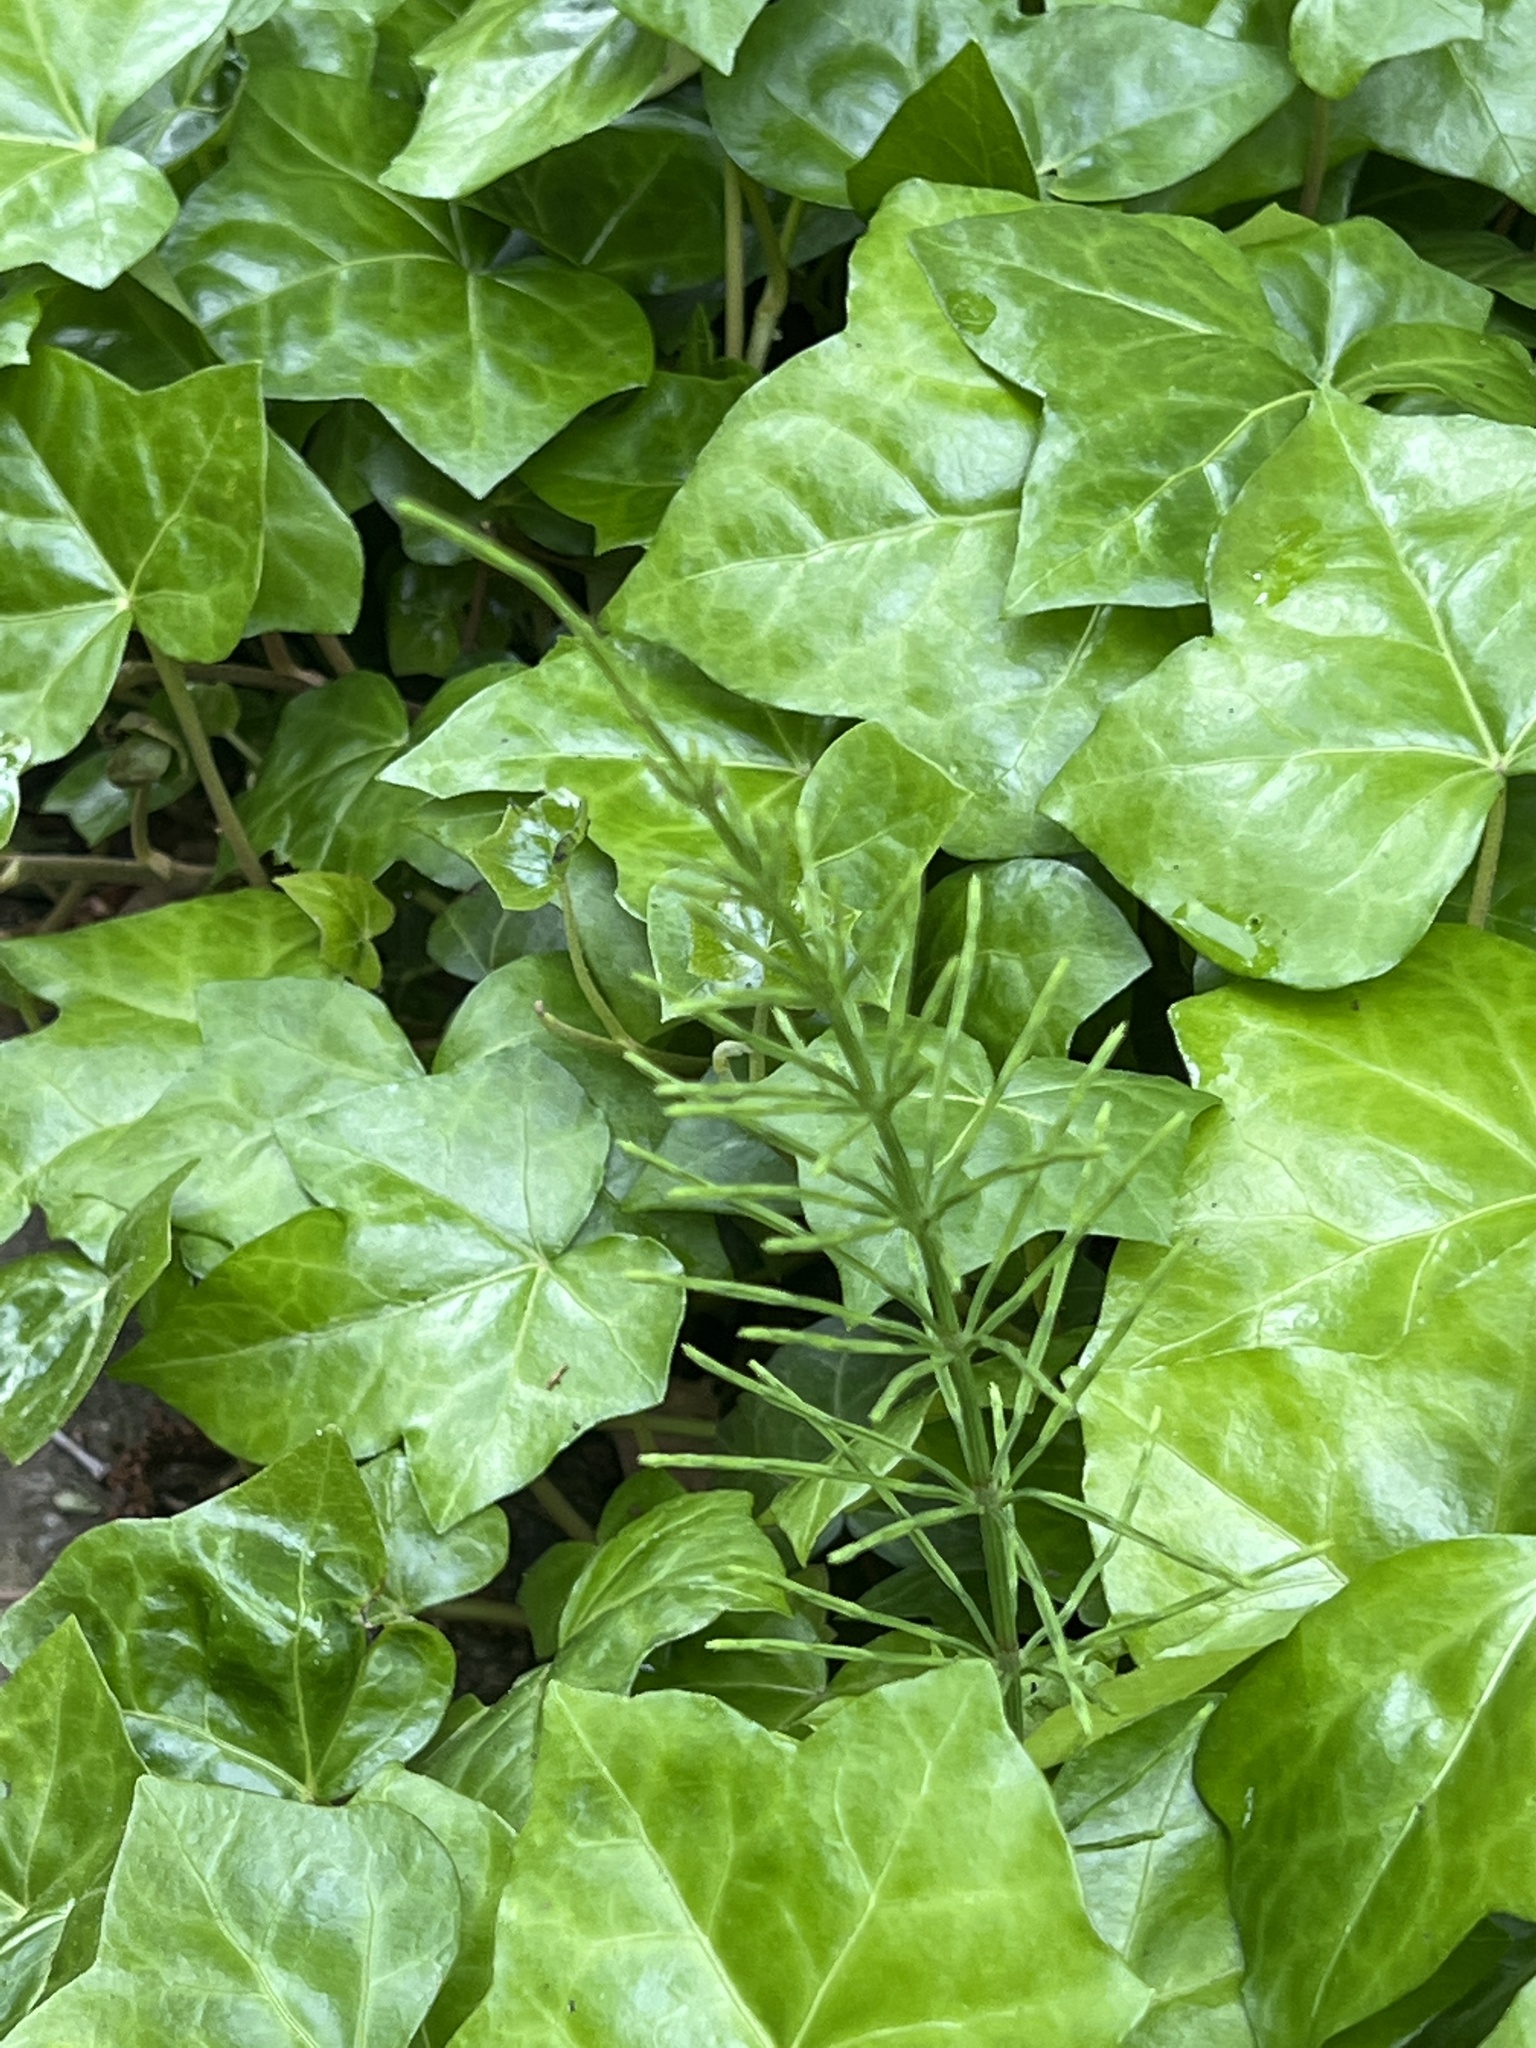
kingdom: Plantae
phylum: Tracheophyta
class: Polypodiopsida
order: Equisetales
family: Equisetaceae
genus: Equisetum
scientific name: Equisetum arvense
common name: Field horsetail
